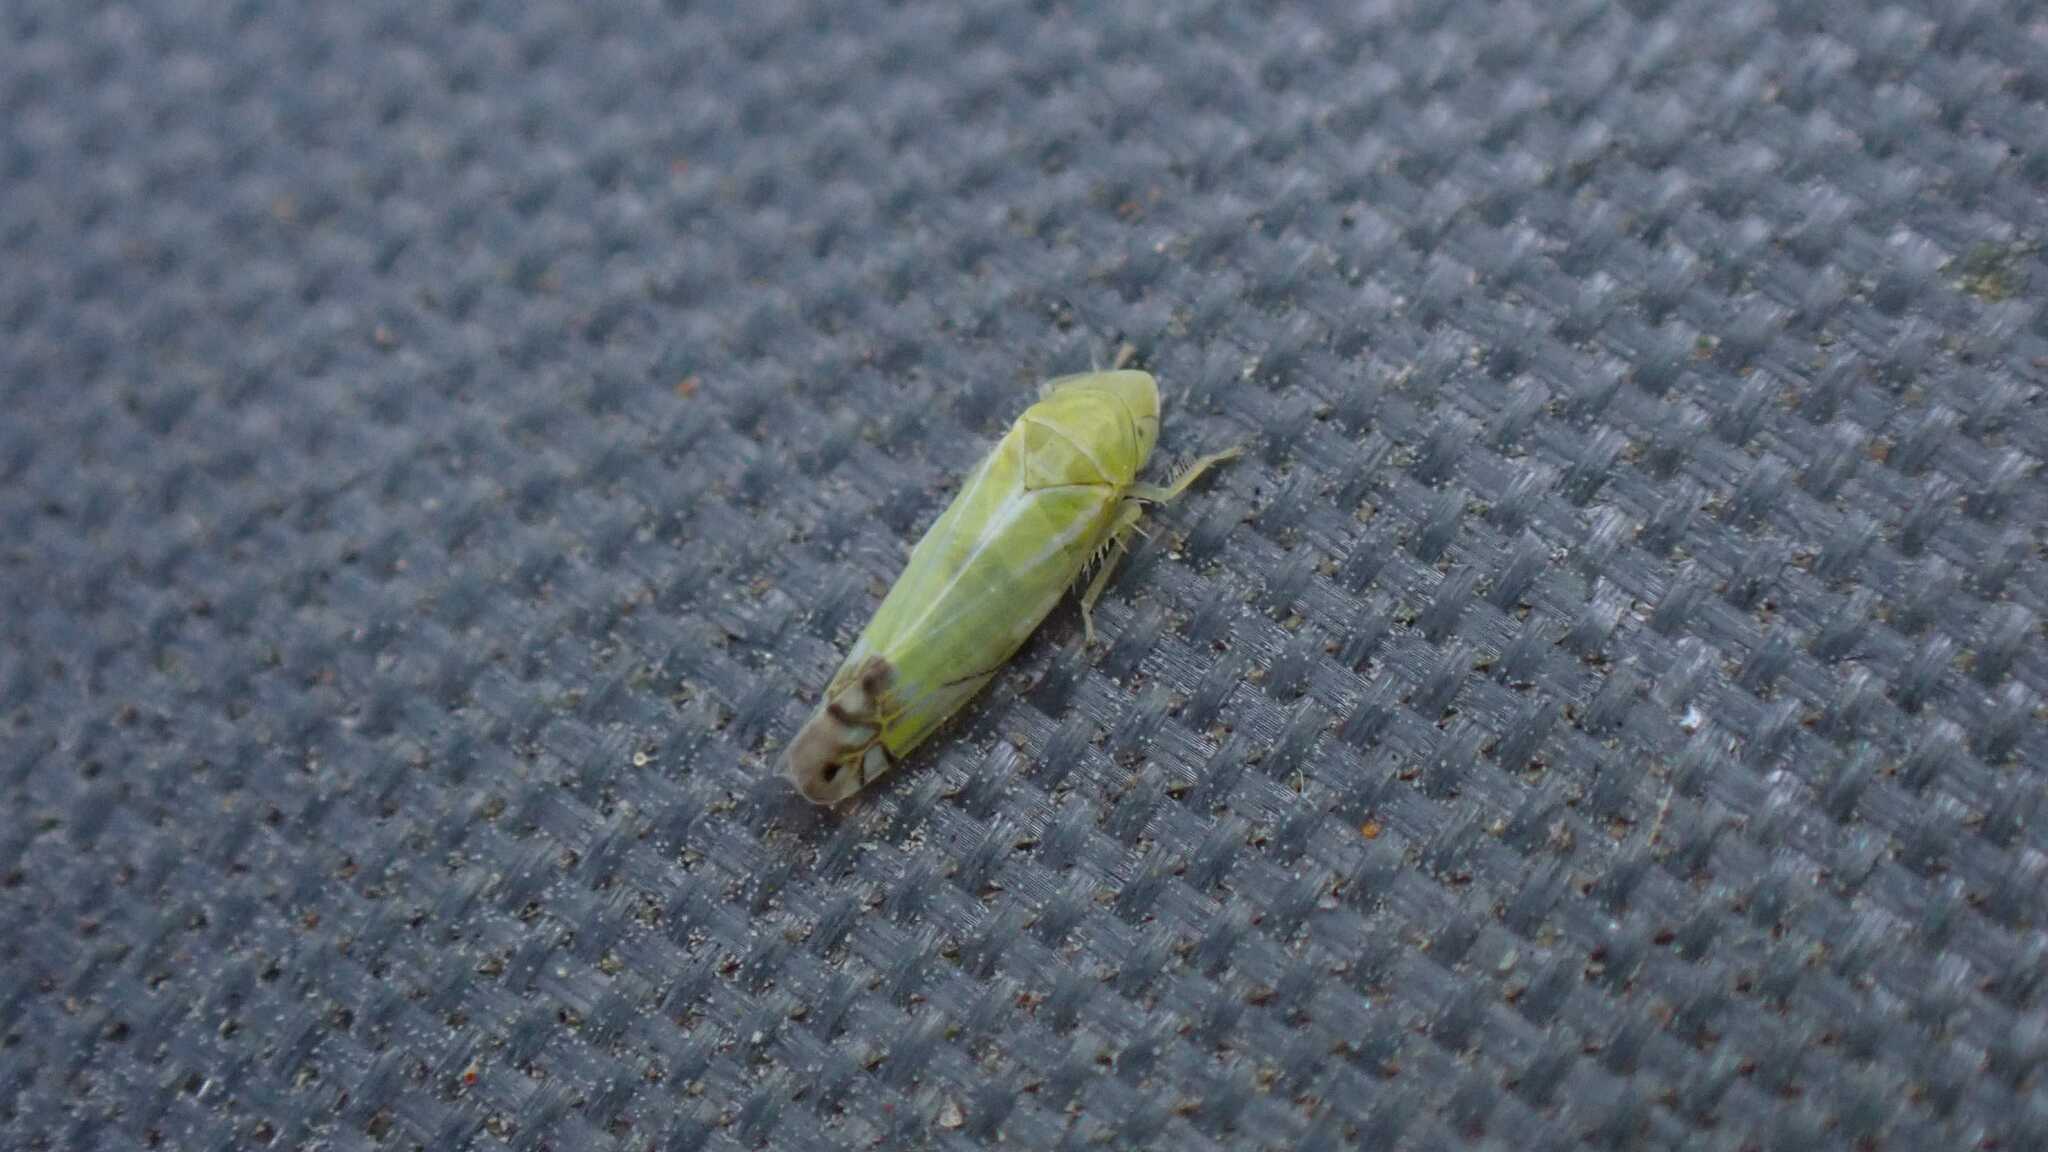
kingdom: Animalia
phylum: Arthropoda
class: Insecta
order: Hemiptera
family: Cicadellidae
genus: Zyginella
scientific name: Zyginella pulchra
